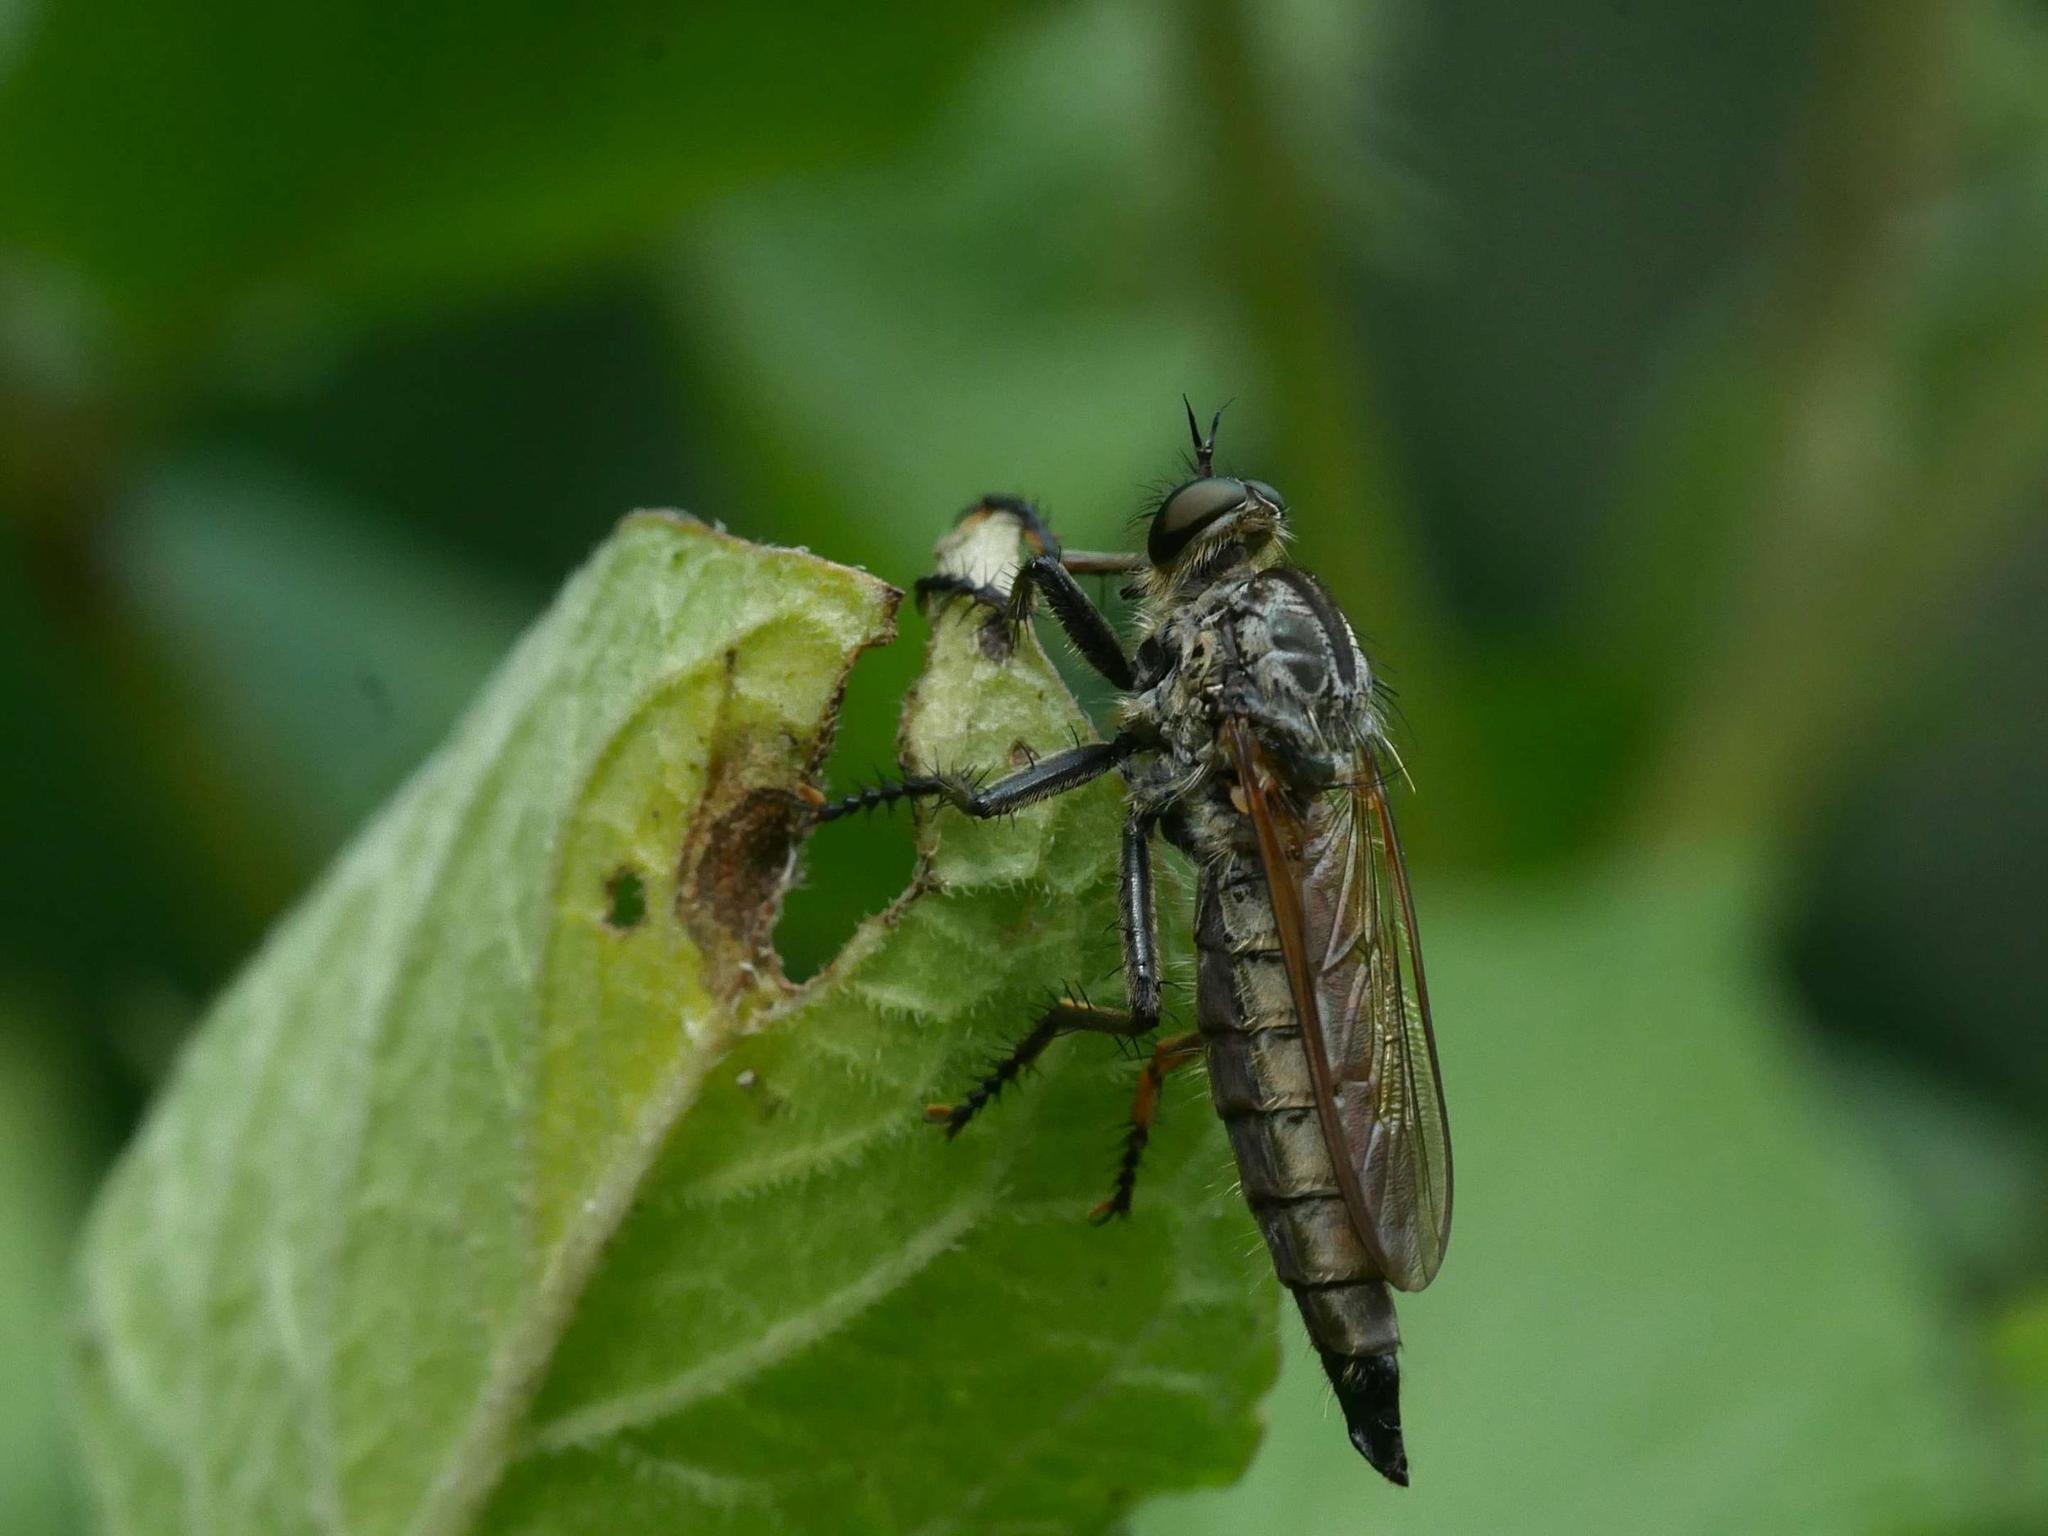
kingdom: Animalia
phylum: Arthropoda
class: Insecta
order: Diptera
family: Asilidae
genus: Eutolmus
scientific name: Eutolmus rufibarbis
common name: Golden-tabbed robberfly
